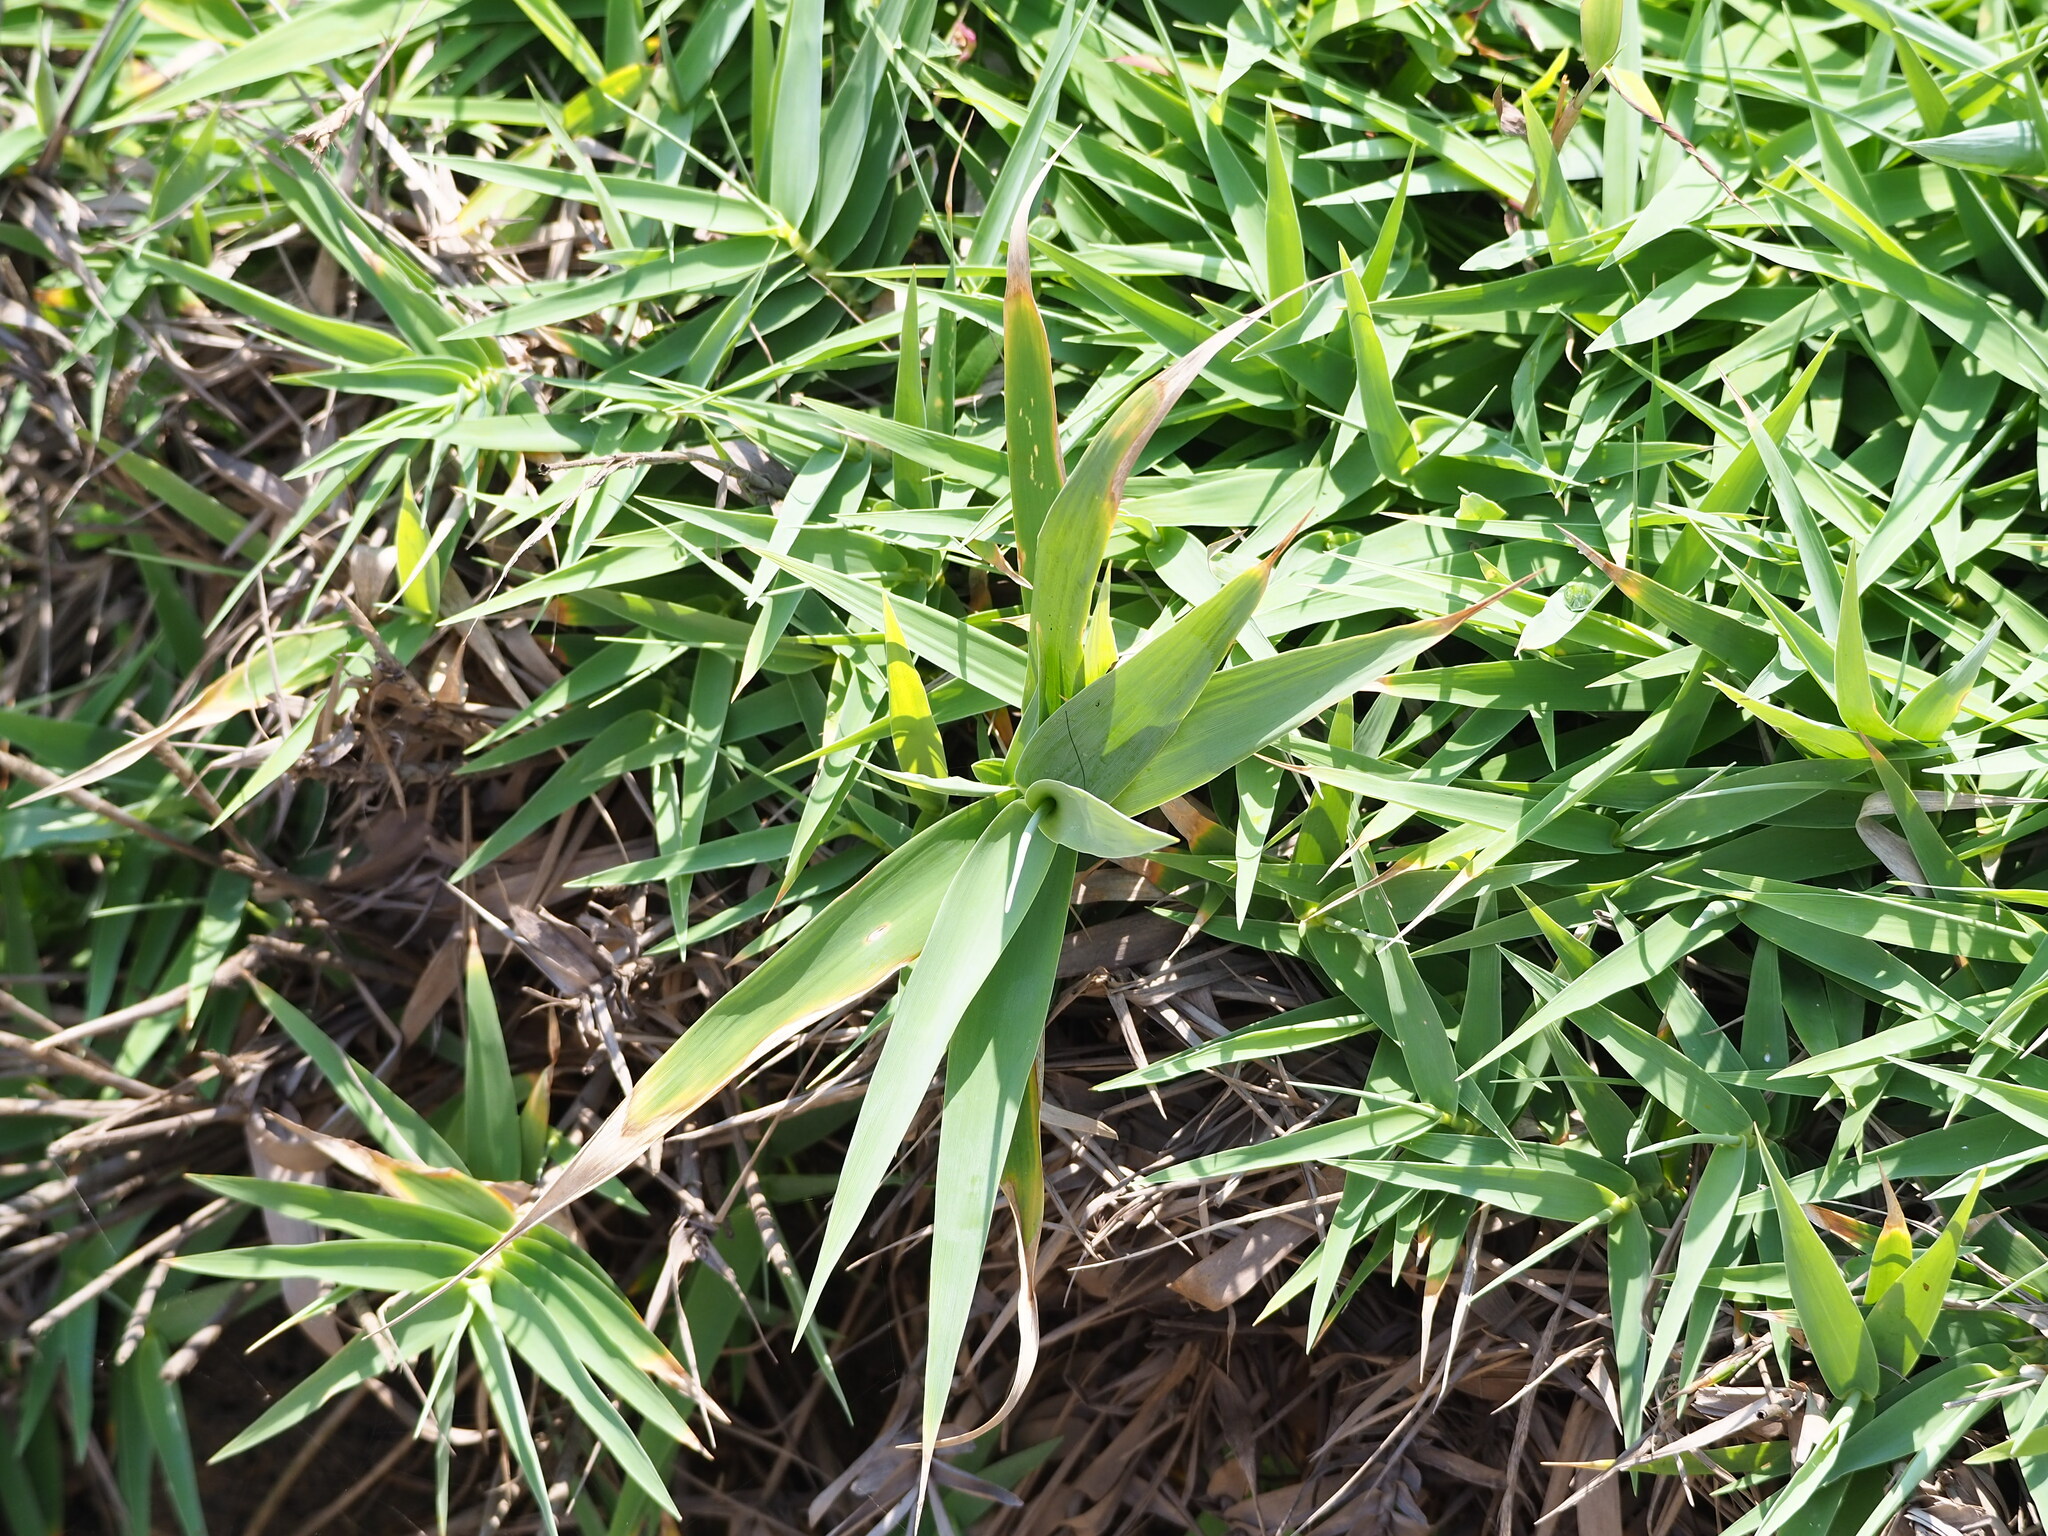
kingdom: Plantae
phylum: Tracheophyta
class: Liliopsida
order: Poales
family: Poaceae
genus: Arundo
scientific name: Arundo formosana
